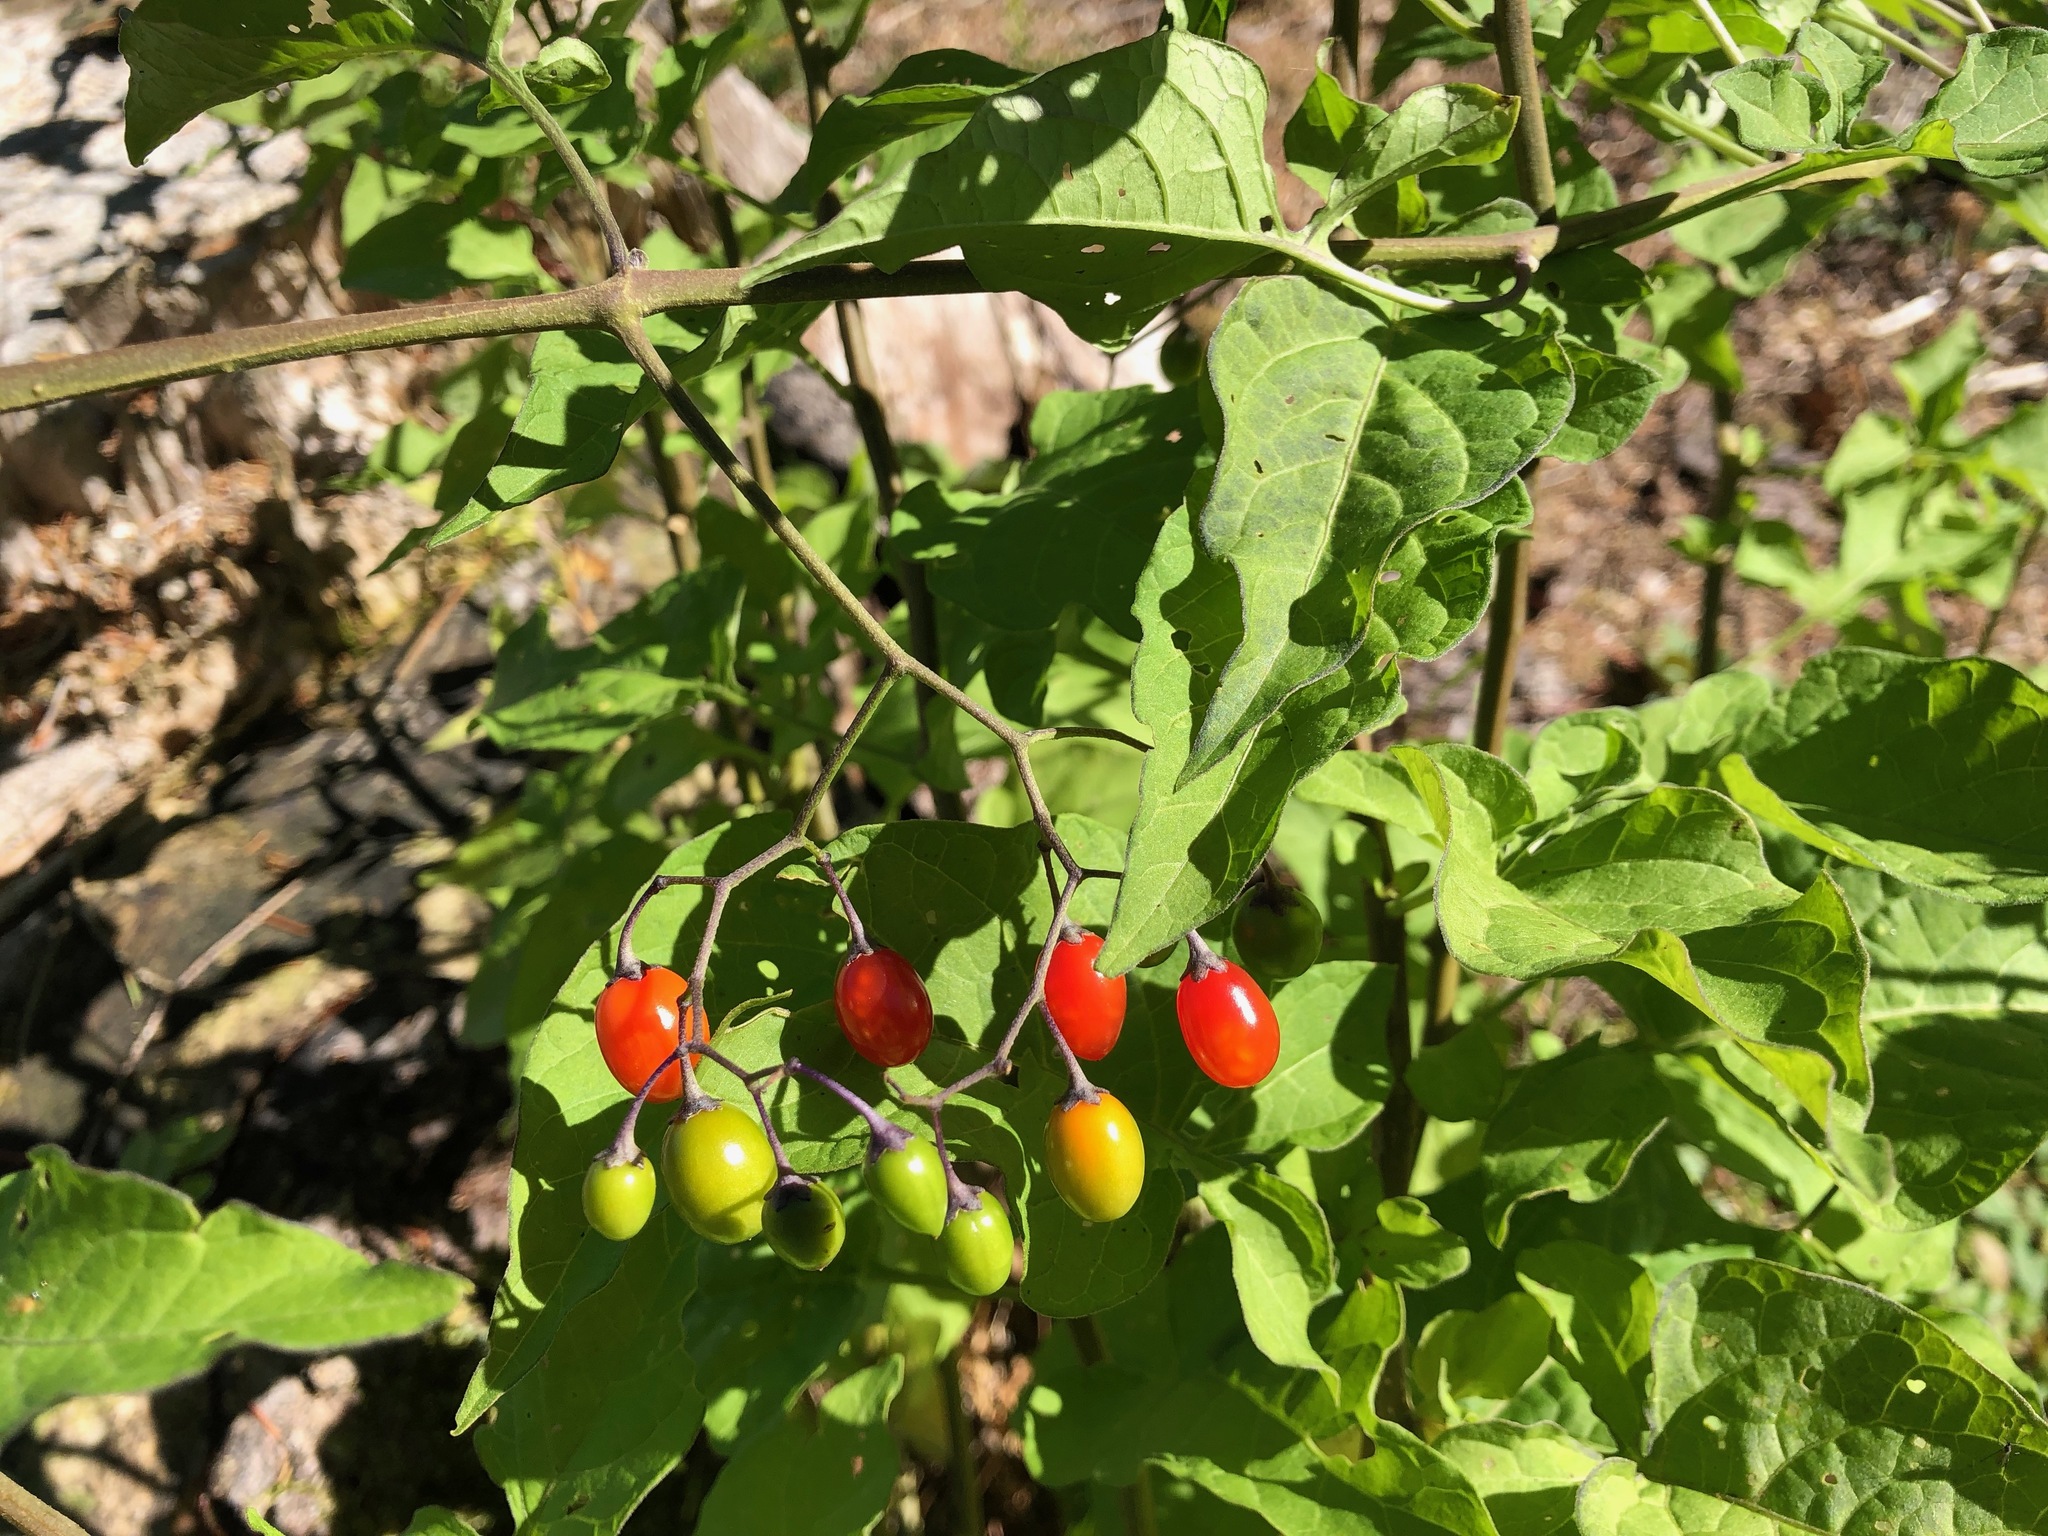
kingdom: Plantae
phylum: Tracheophyta
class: Magnoliopsida
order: Solanales
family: Solanaceae
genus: Solanum
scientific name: Solanum dulcamara
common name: Climbing nightshade
